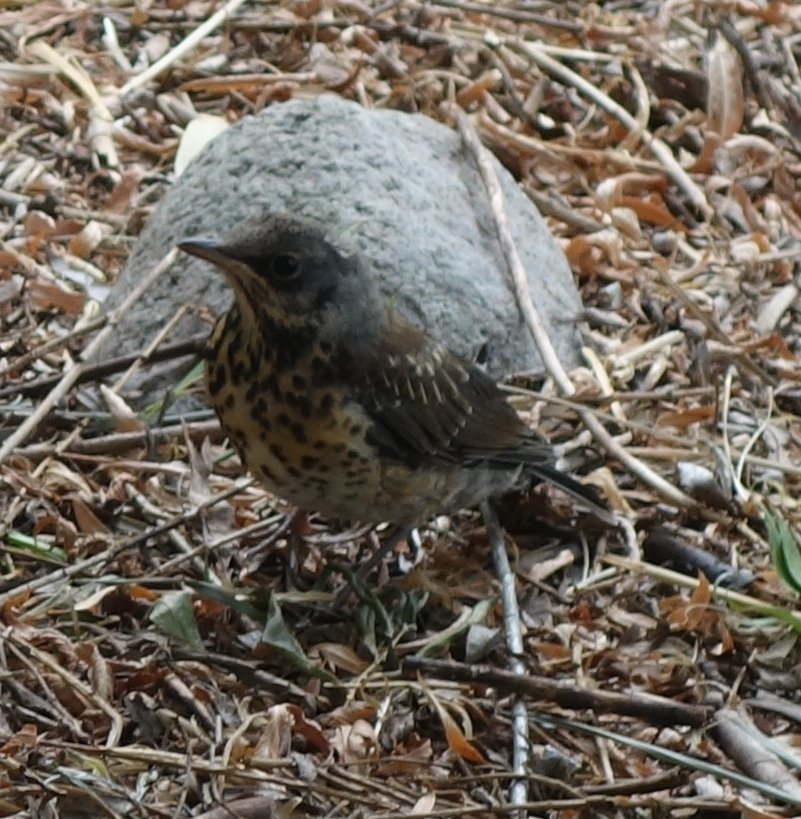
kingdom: Animalia
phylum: Chordata
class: Aves
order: Passeriformes
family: Turdidae
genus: Turdus
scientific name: Turdus pilaris
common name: Fieldfare
